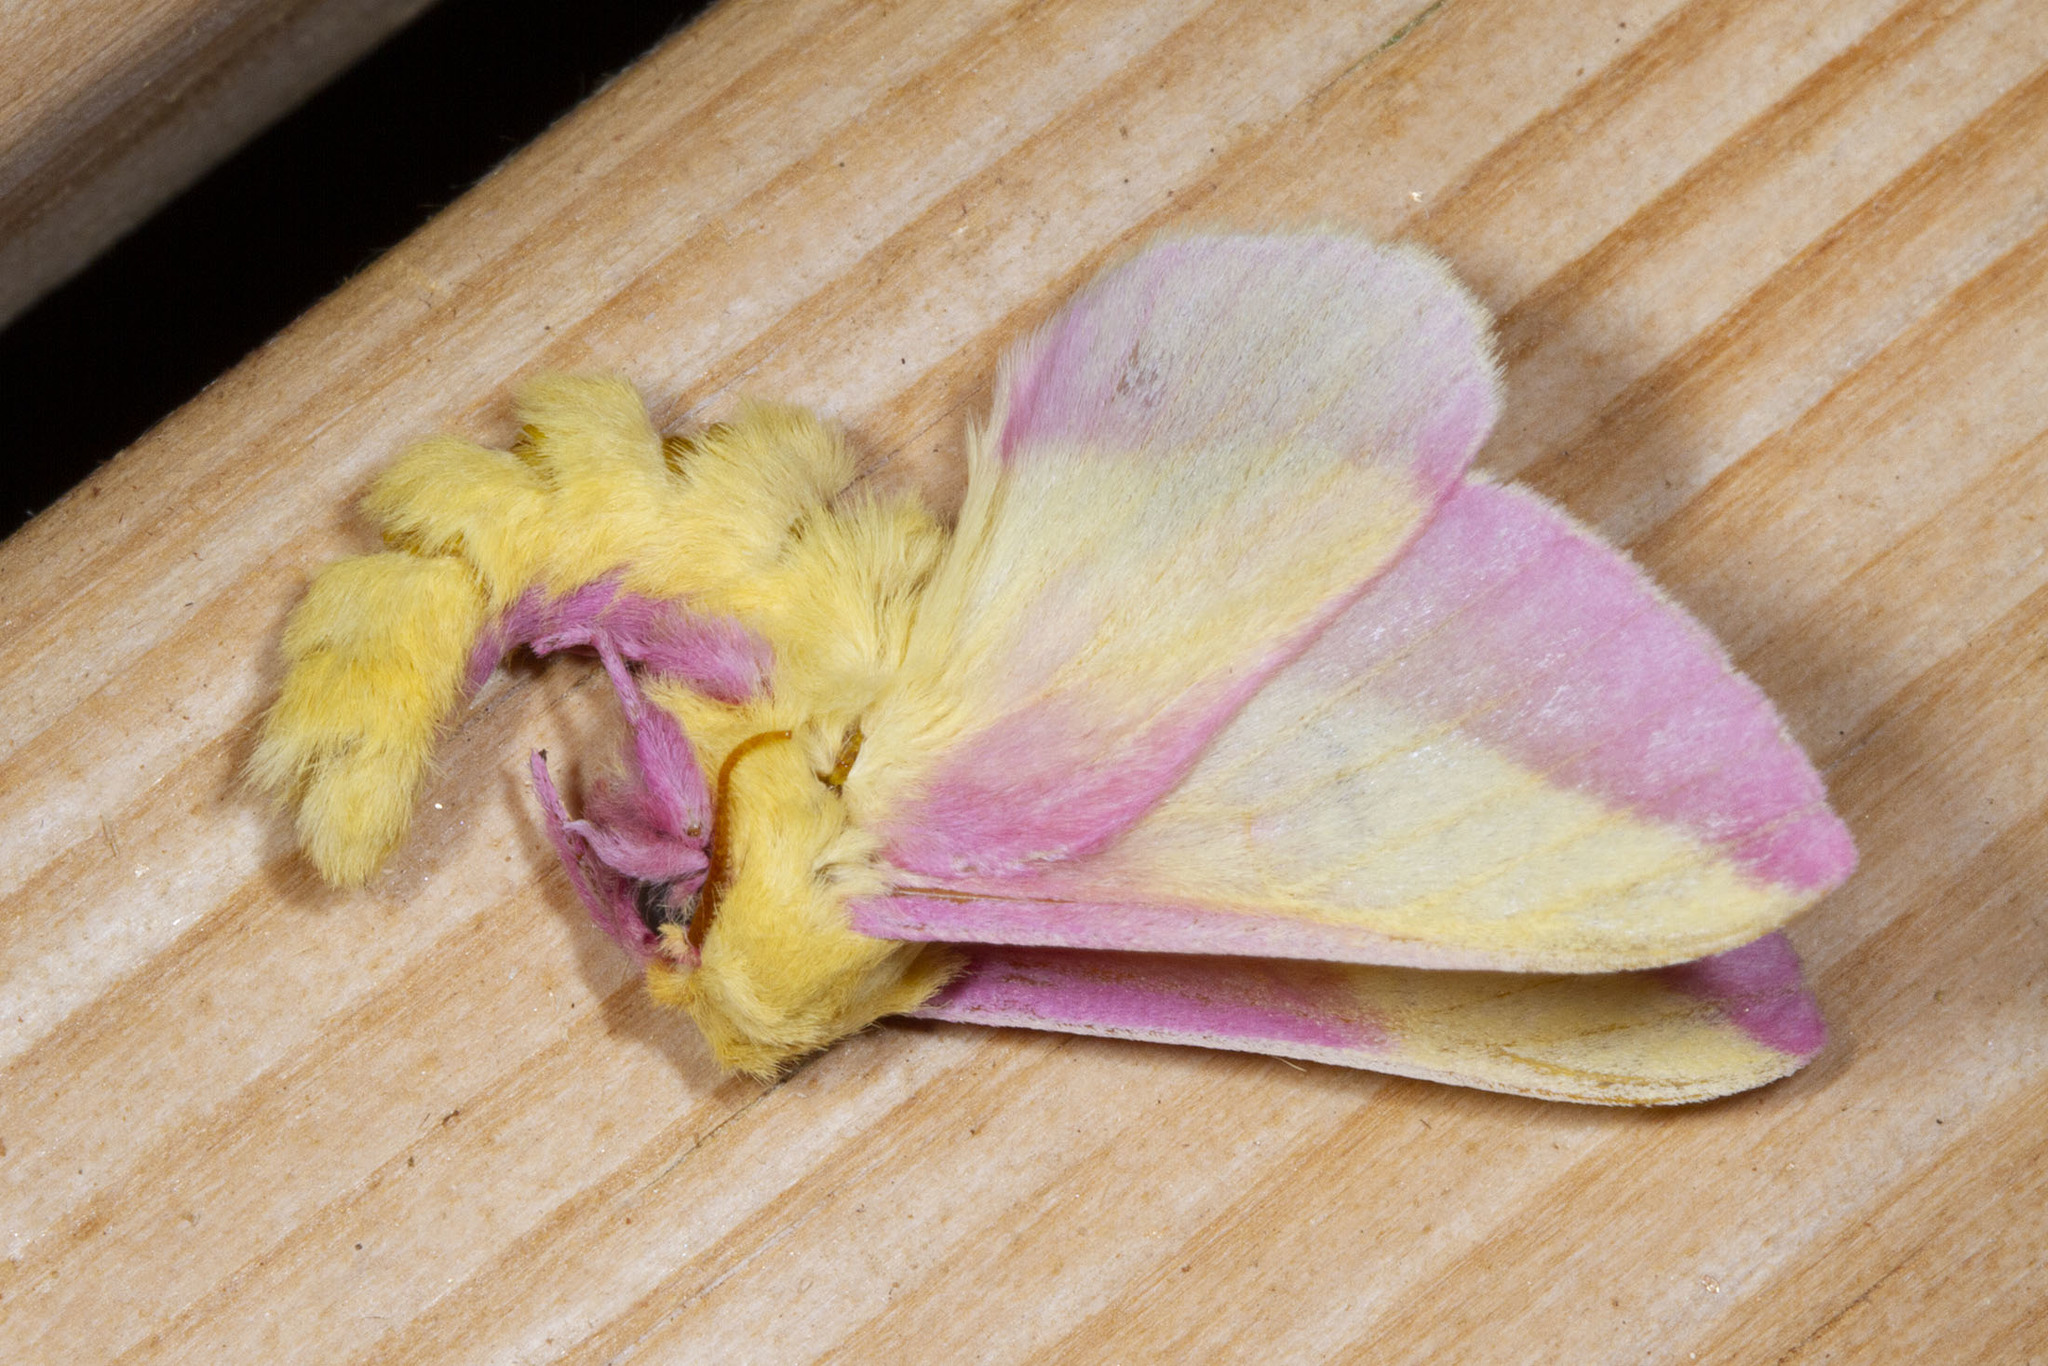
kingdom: Animalia
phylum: Arthropoda
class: Insecta
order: Lepidoptera
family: Saturniidae
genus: Dryocampa
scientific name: Dryocampa rubicunda
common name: Rosy maple moth
